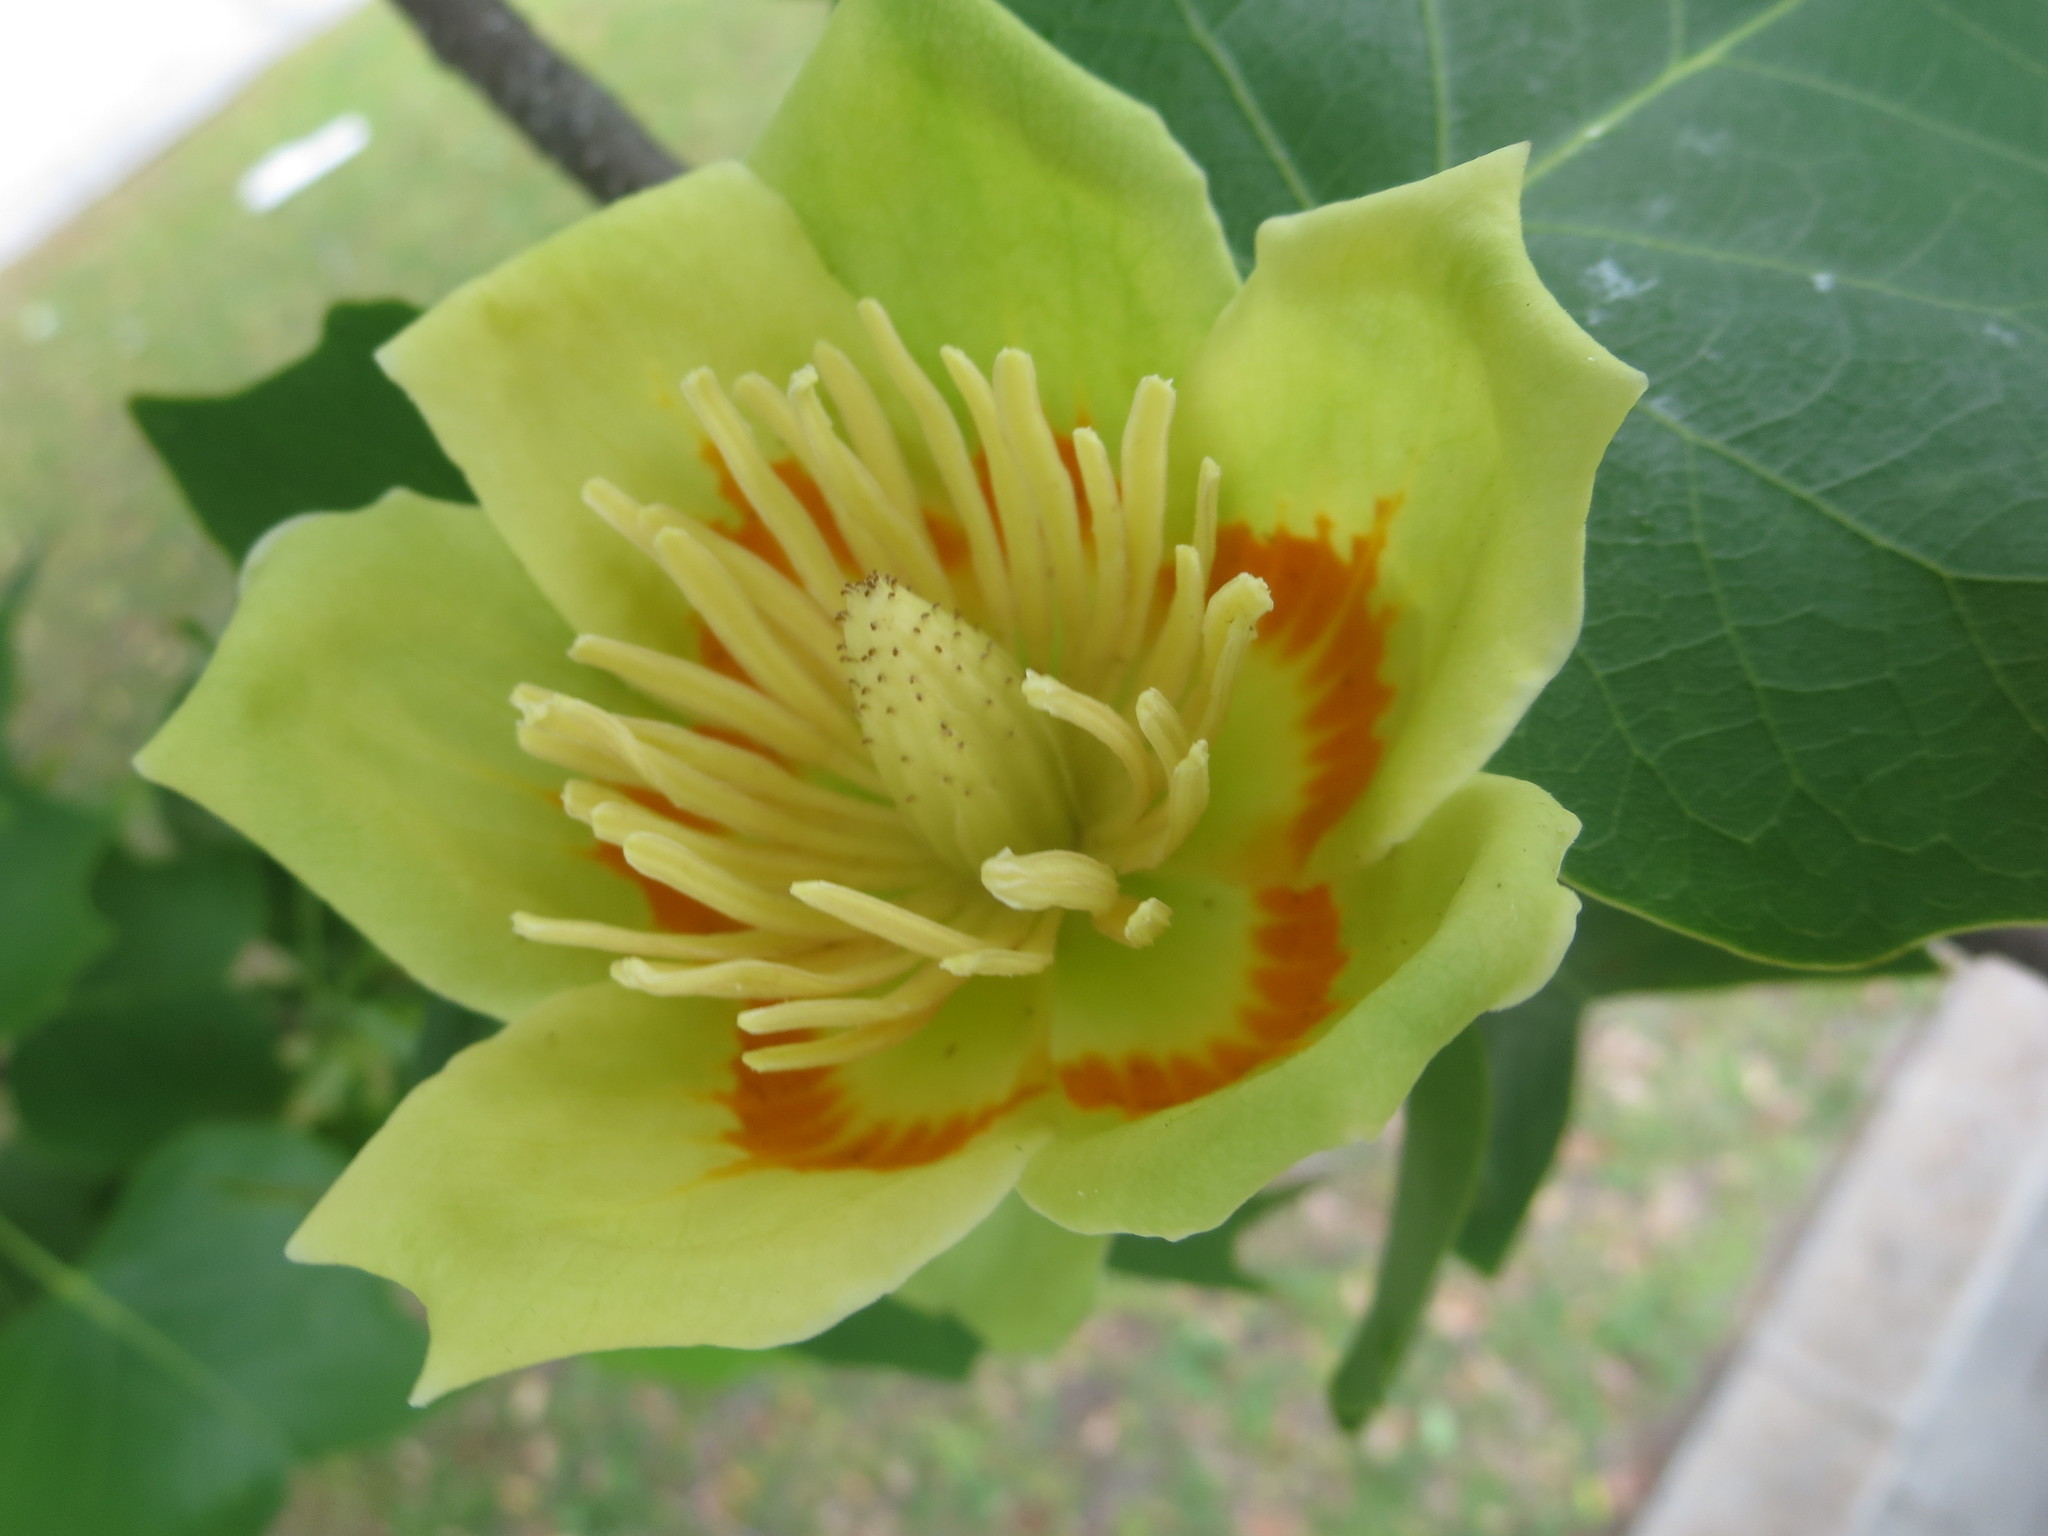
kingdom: Plantae
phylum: Tracheophyta
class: Magnoliopsida
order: Magnoliales
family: Magnoliaceae
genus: Liriodendron
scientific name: Liriodendron tulipifera
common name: Tulip tree
